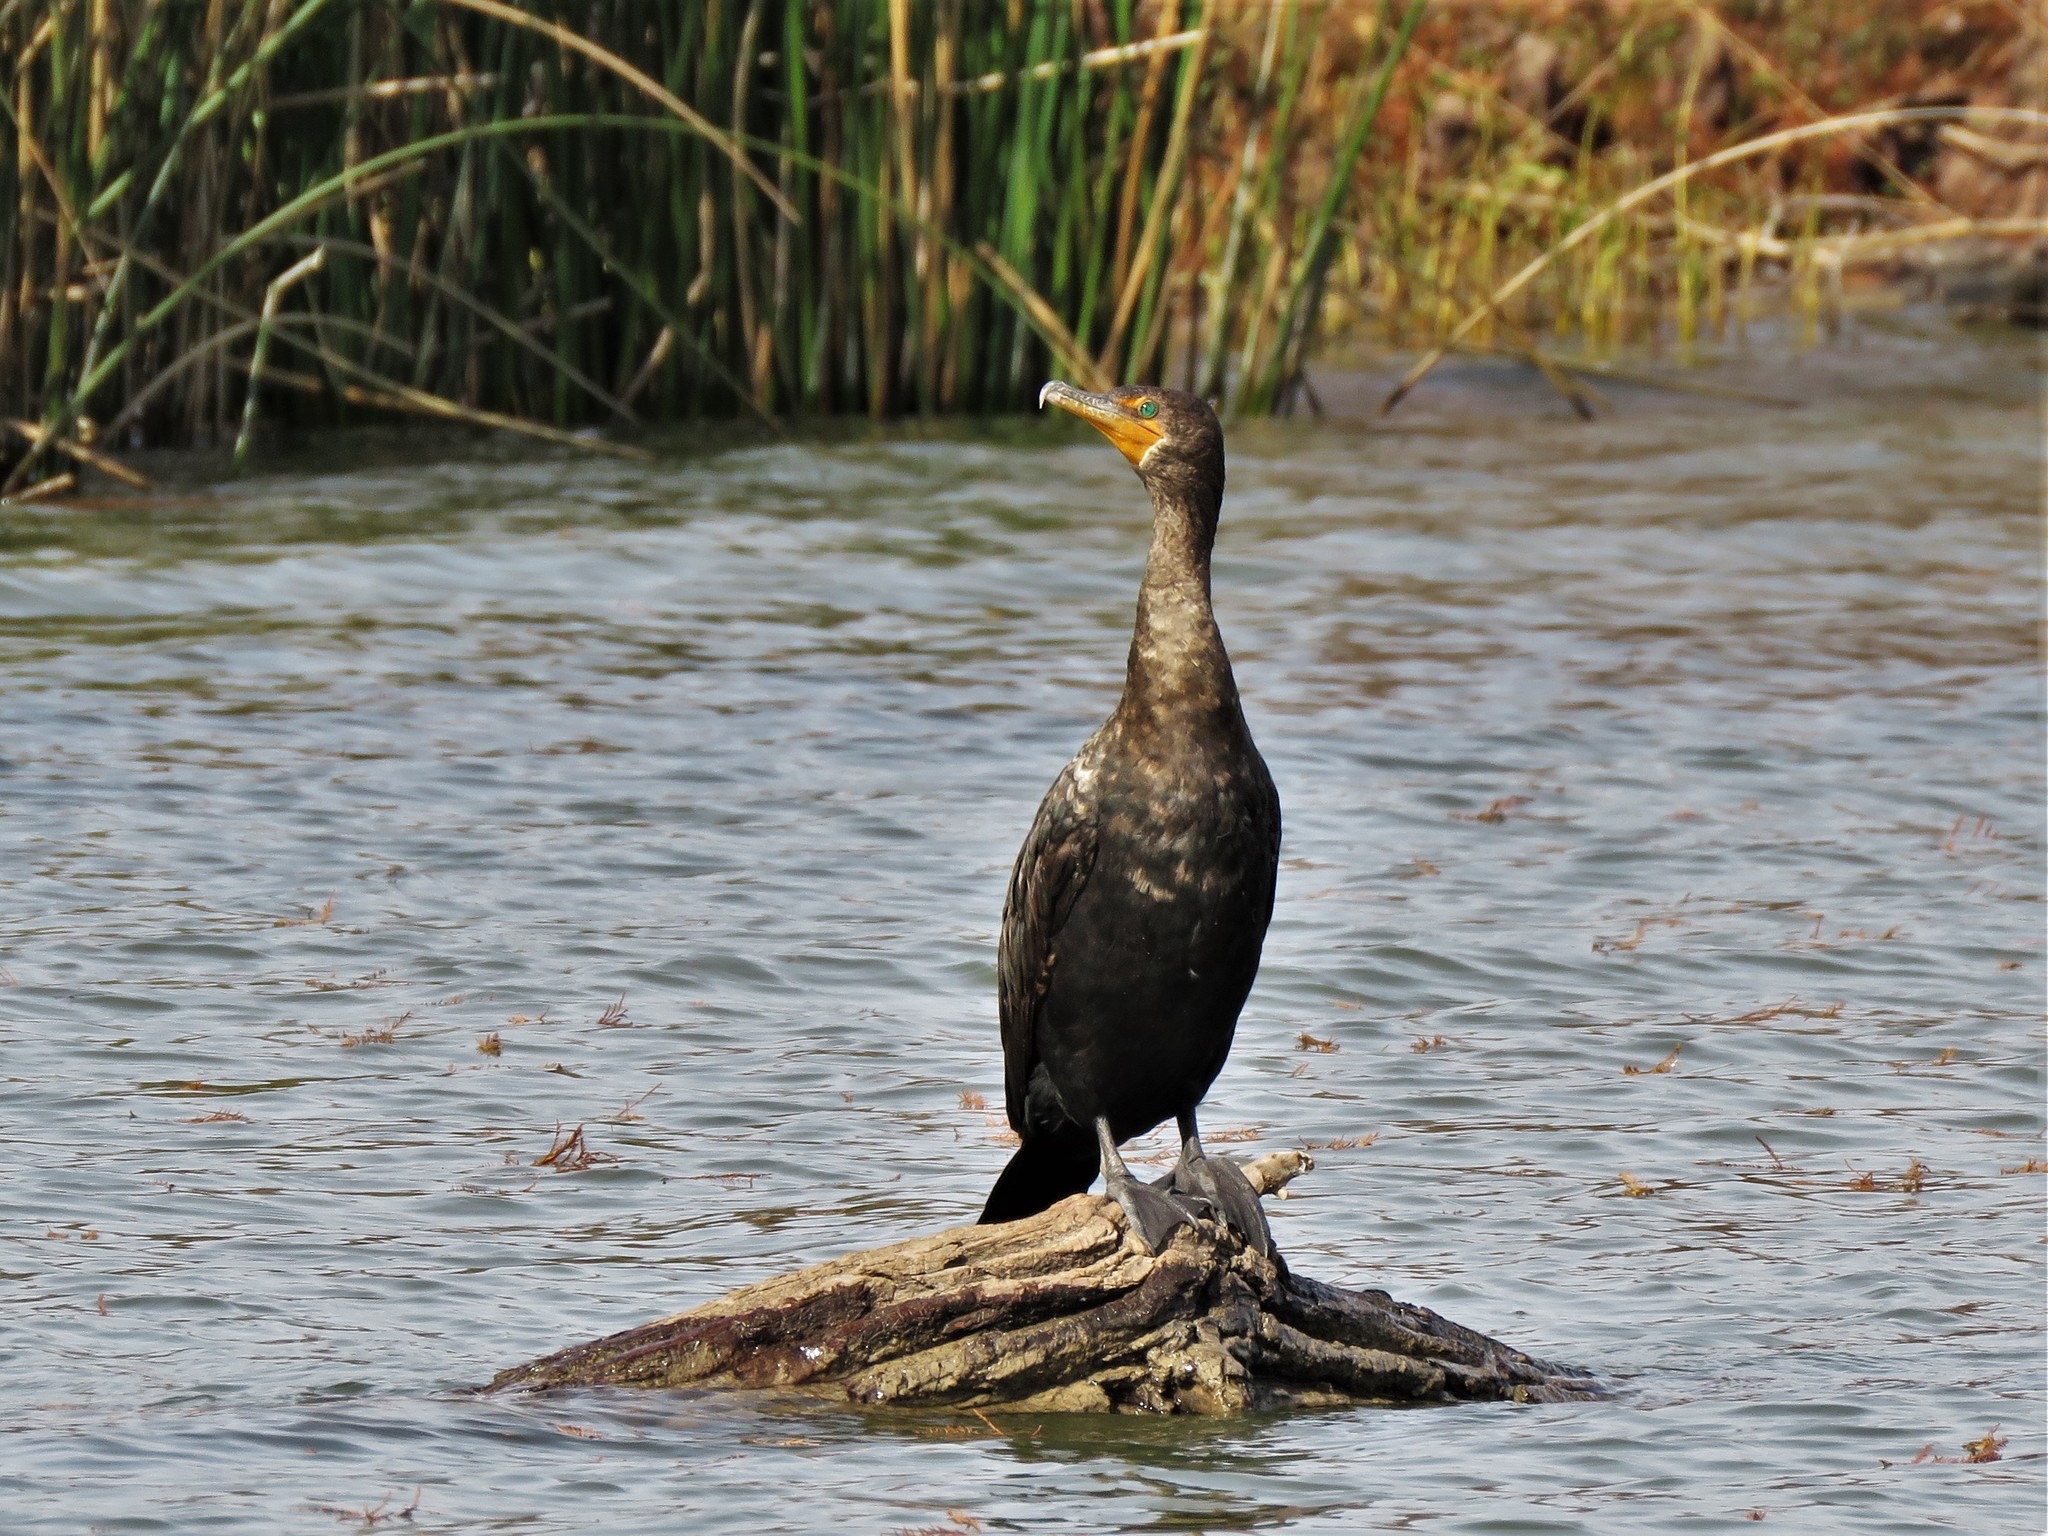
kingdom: Animalia
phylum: Chordata
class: Aves
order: Suliformes
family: Phalacrocoracidae
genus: Phalacrocorax
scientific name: Phalacrocorax auritus
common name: Double-crested cormorant
